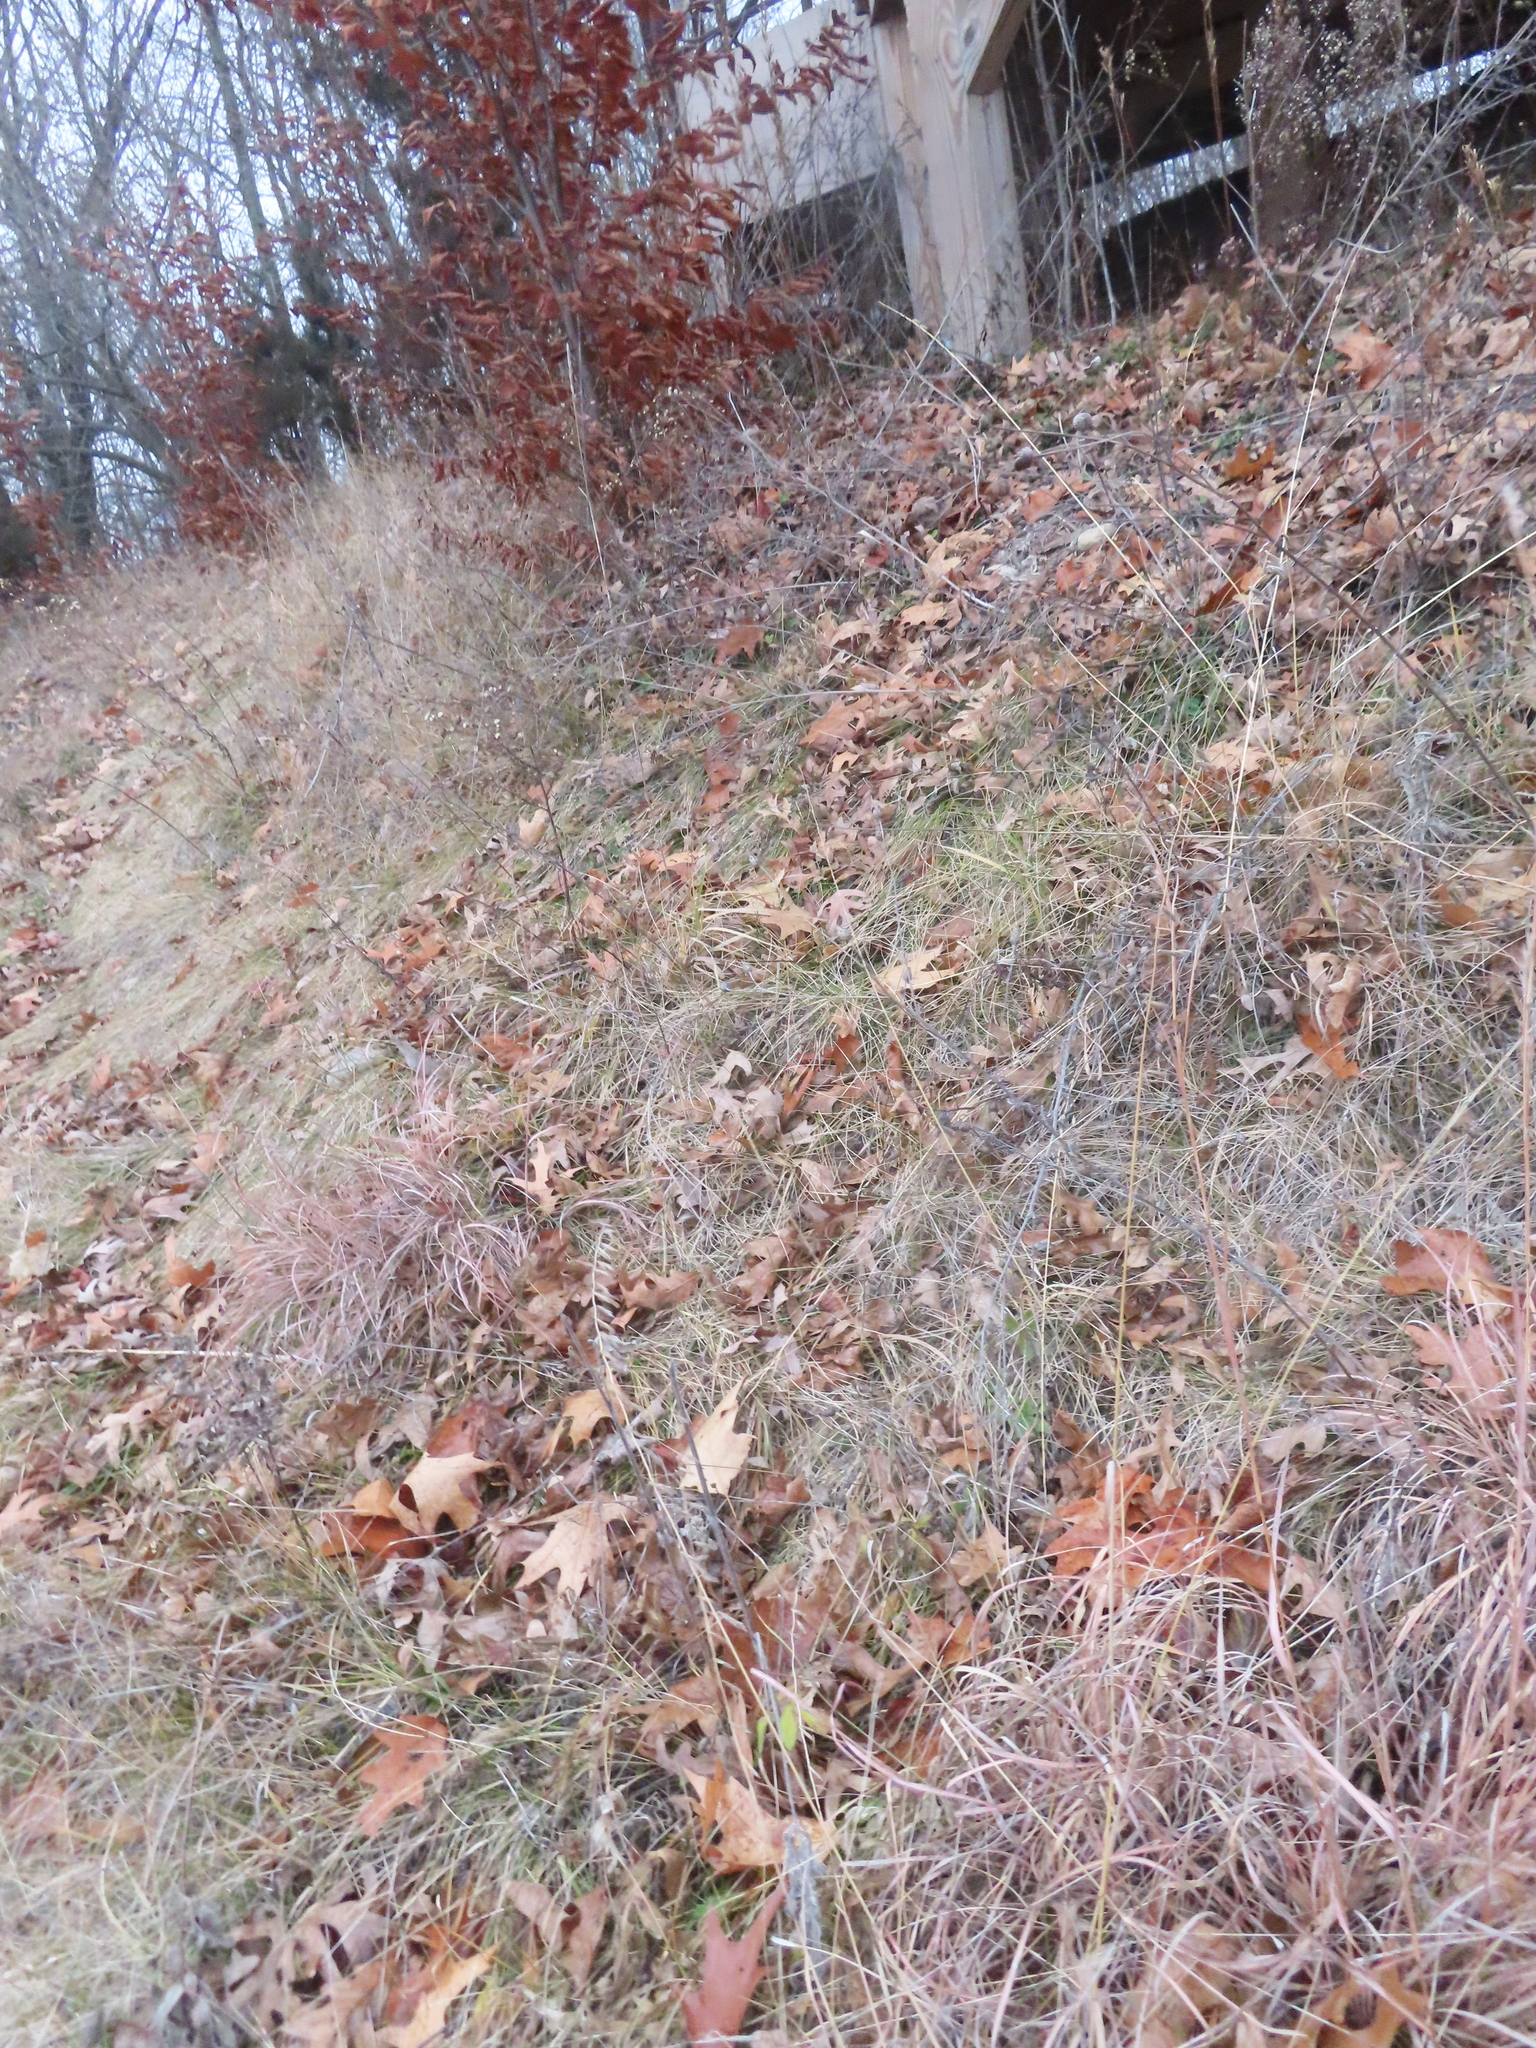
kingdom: Plantae
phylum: Tracheophyta
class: Liliopsida
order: Poales
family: Poaceae
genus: Bouteloua
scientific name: Bouteloua curtipendula
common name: Side-oats grama
